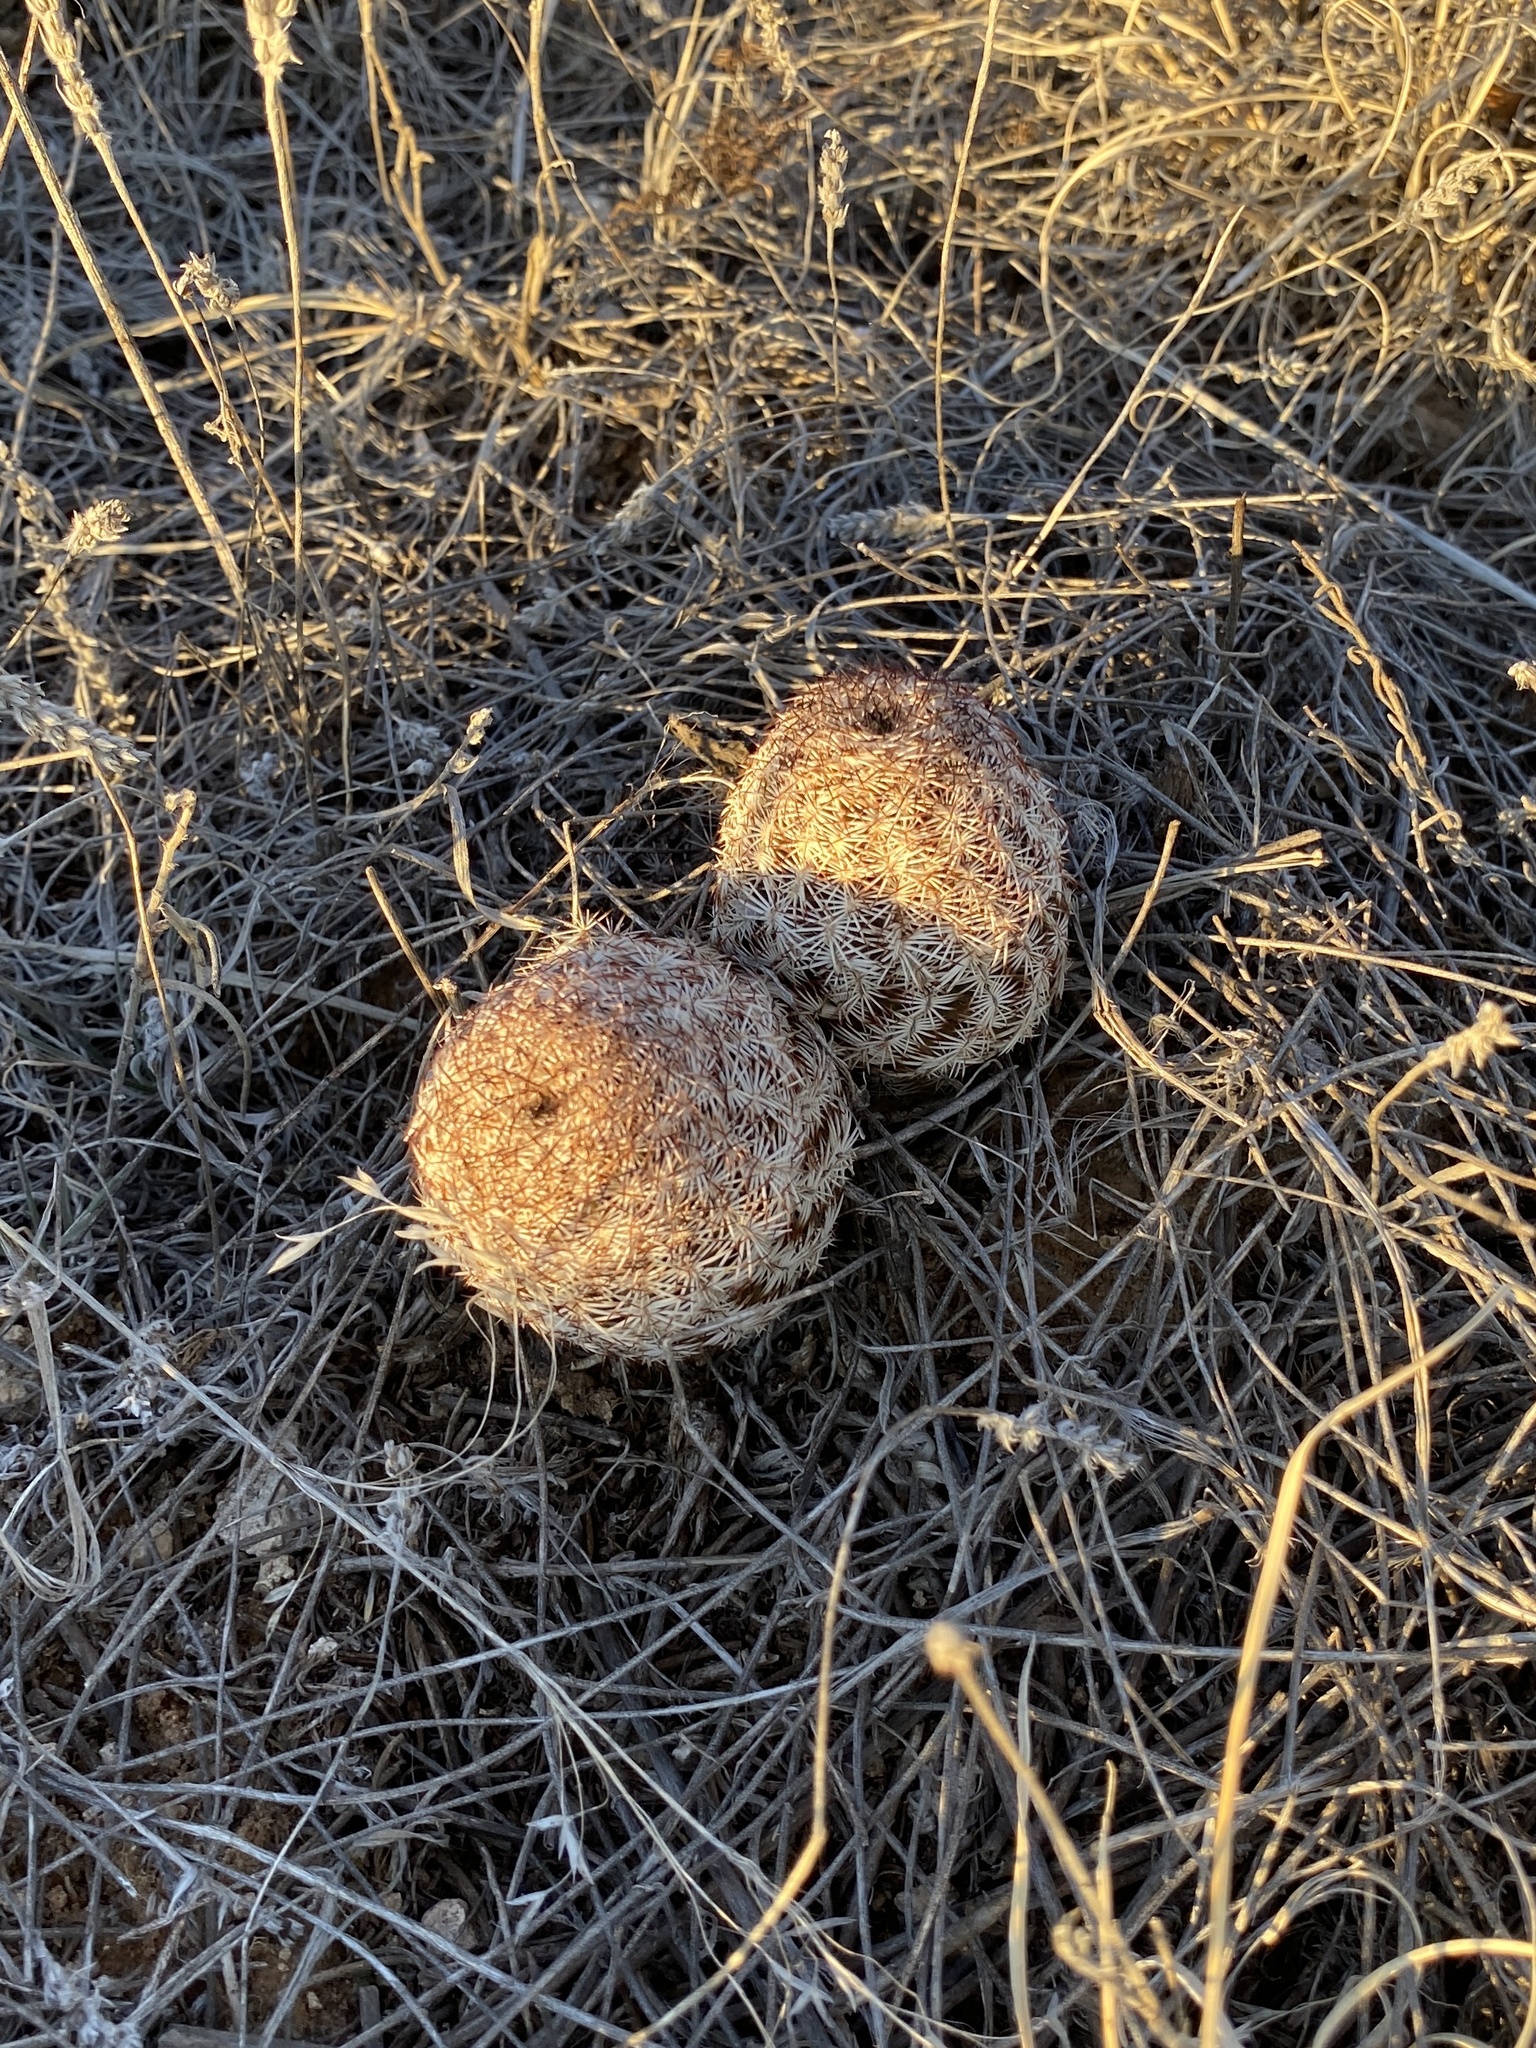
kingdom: Plantae
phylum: Tracheophyta
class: Magnoliopsida
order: Caryophyllales
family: Cactaceae
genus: Echinocereus
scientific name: Echinocereus reichenbachii
